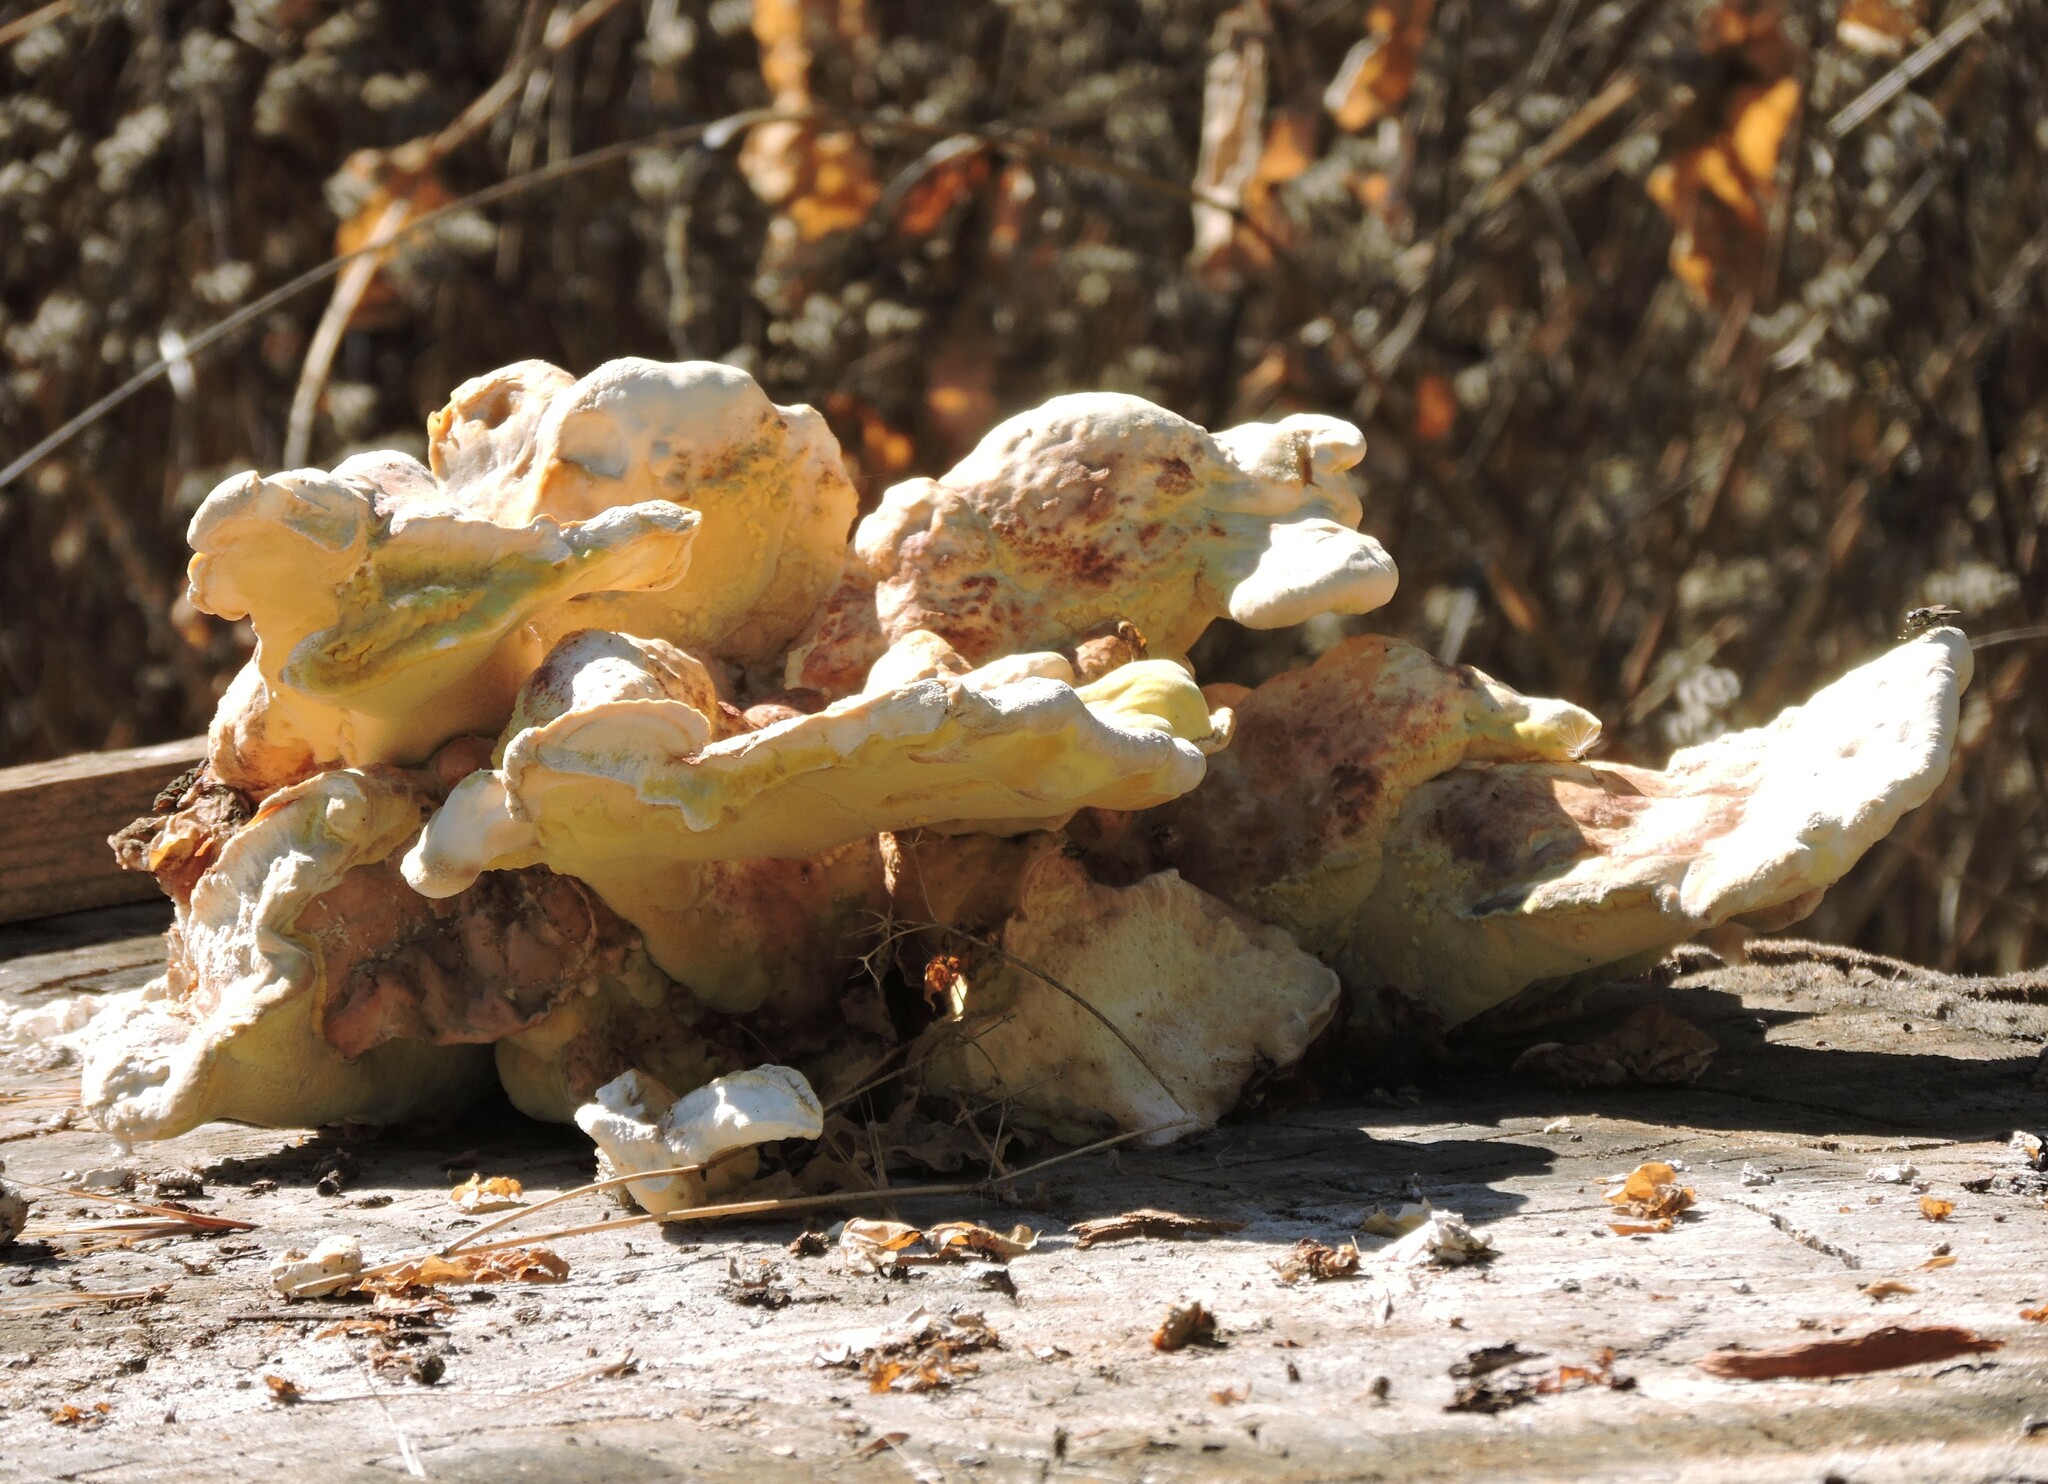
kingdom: Fungi
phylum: Basidiomycota
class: Agaricomycetes
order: Polyporales
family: Laetiporaceae
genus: Laetiporus
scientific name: Laetiporus gilbertsonii
